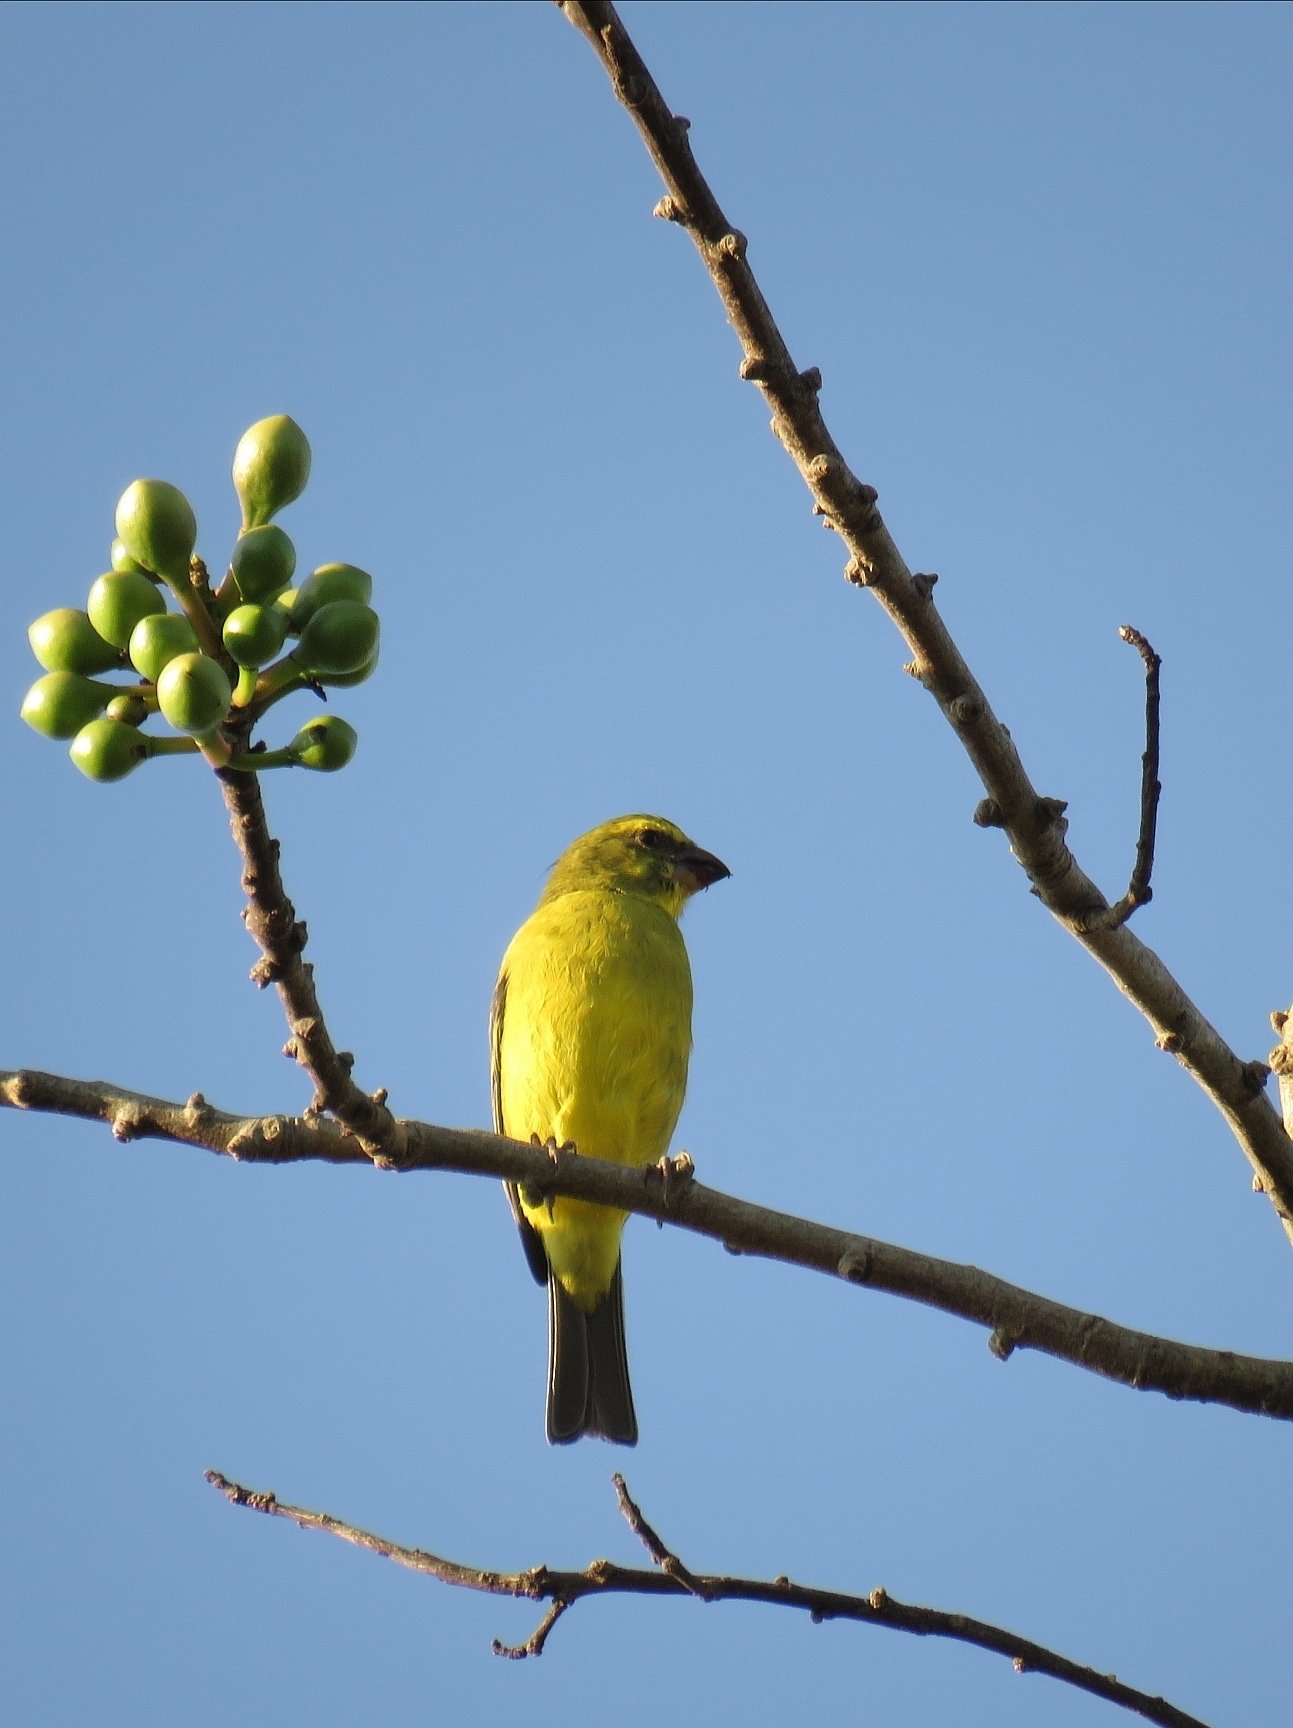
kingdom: Animalia
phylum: Chordata
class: Aves
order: Passeriformes
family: Fringillidae
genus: Crithagra
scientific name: Crithagra sulphurata
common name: Brimstone canary
